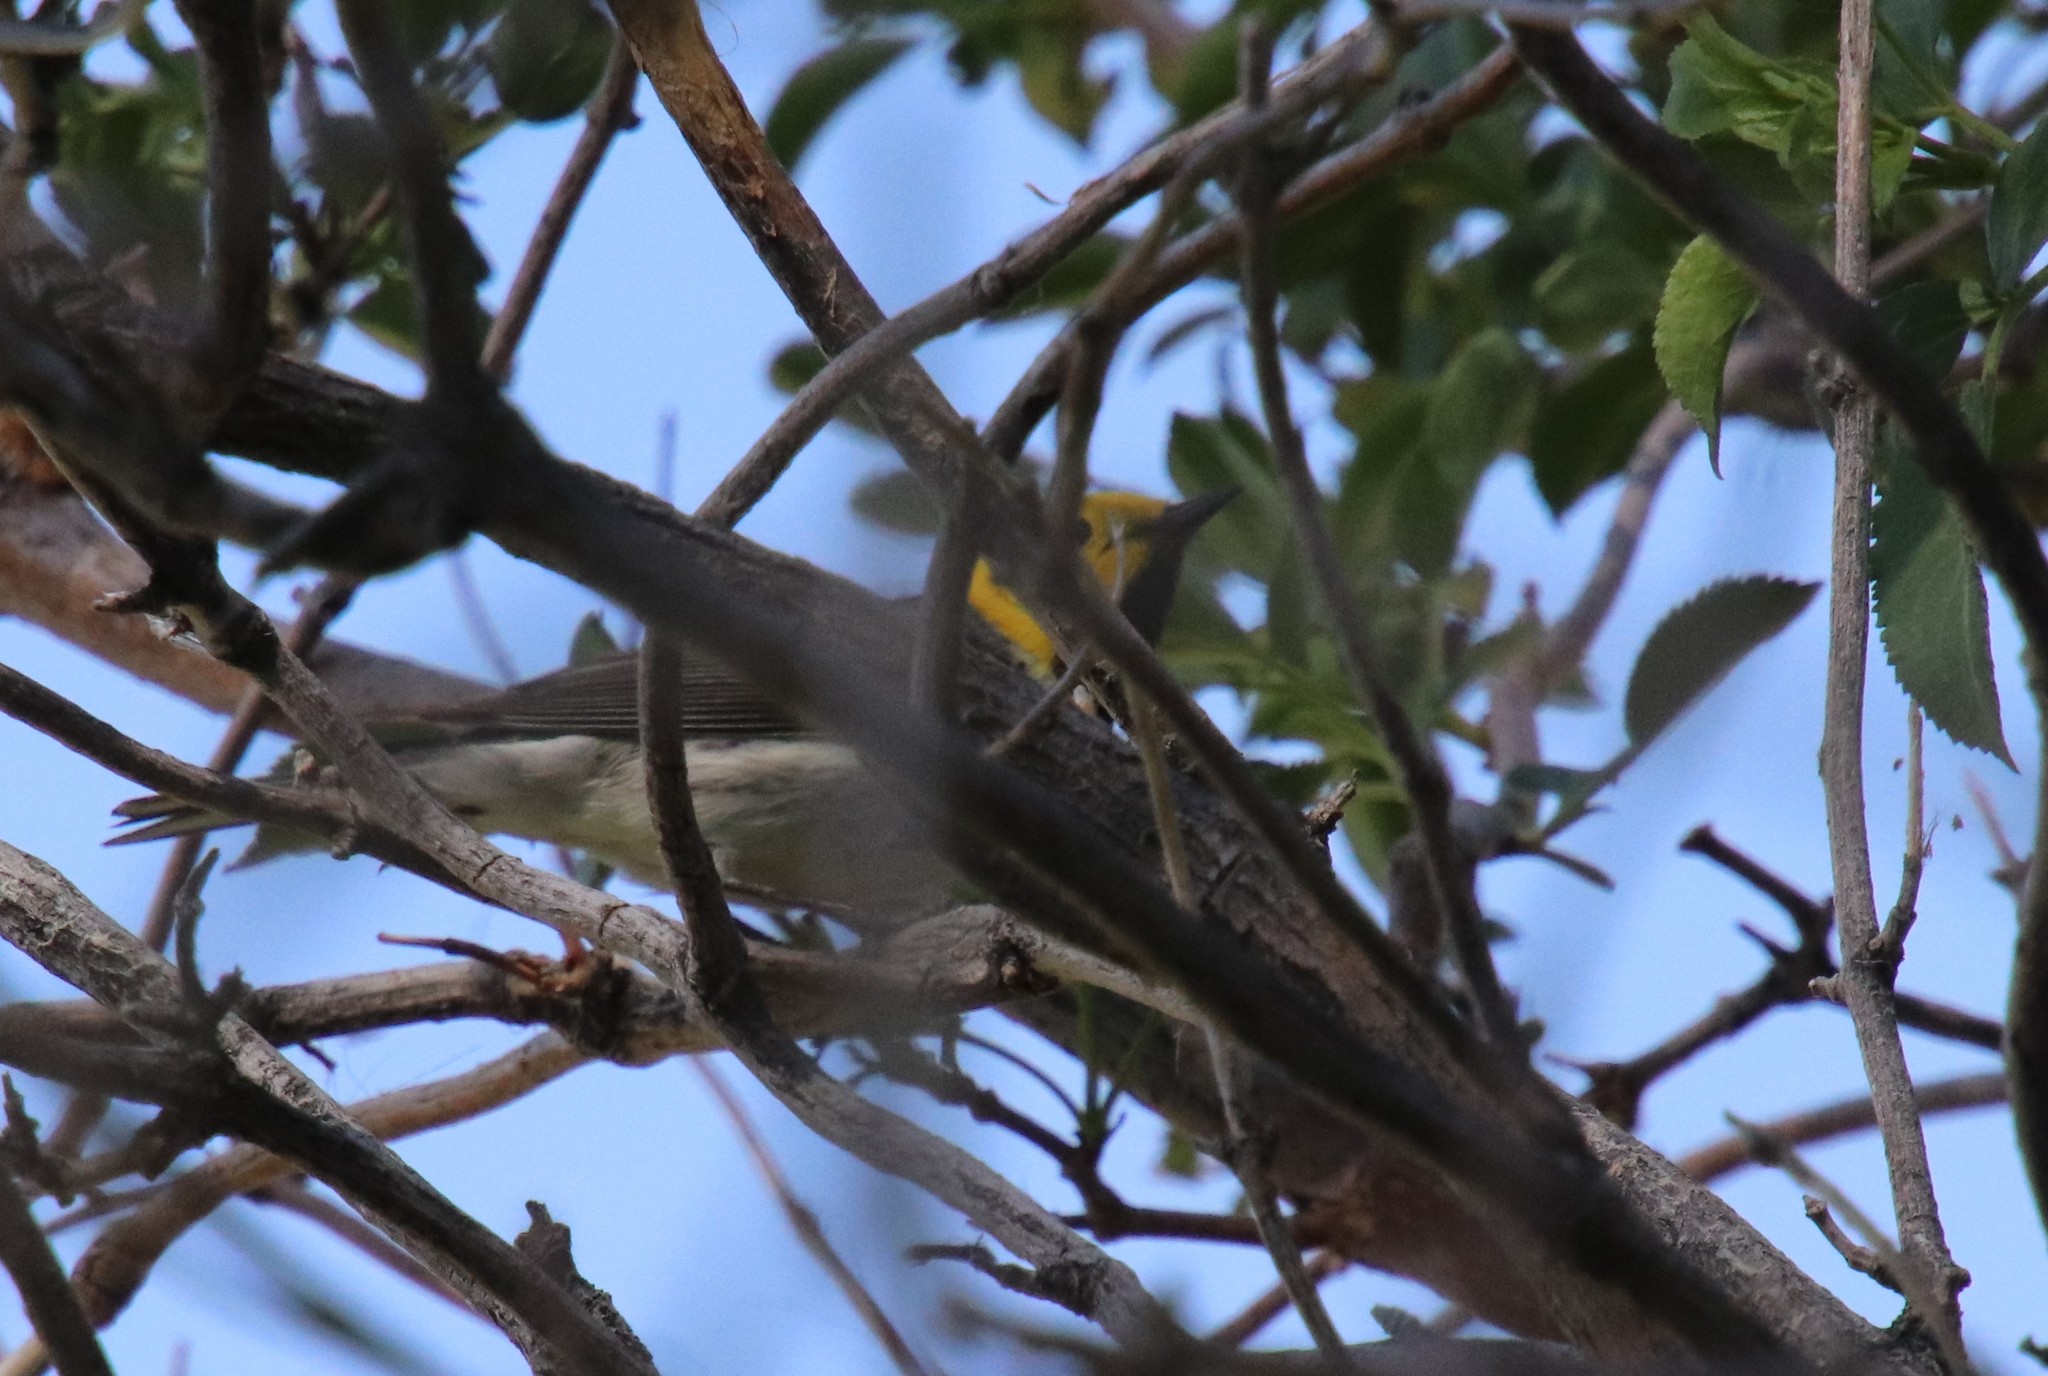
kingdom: Animalia
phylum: Chordata
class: Aves
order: Passeriformes
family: Parulidae
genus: Setophaga
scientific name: Setophaga occidentalis
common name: Hermit warbler
